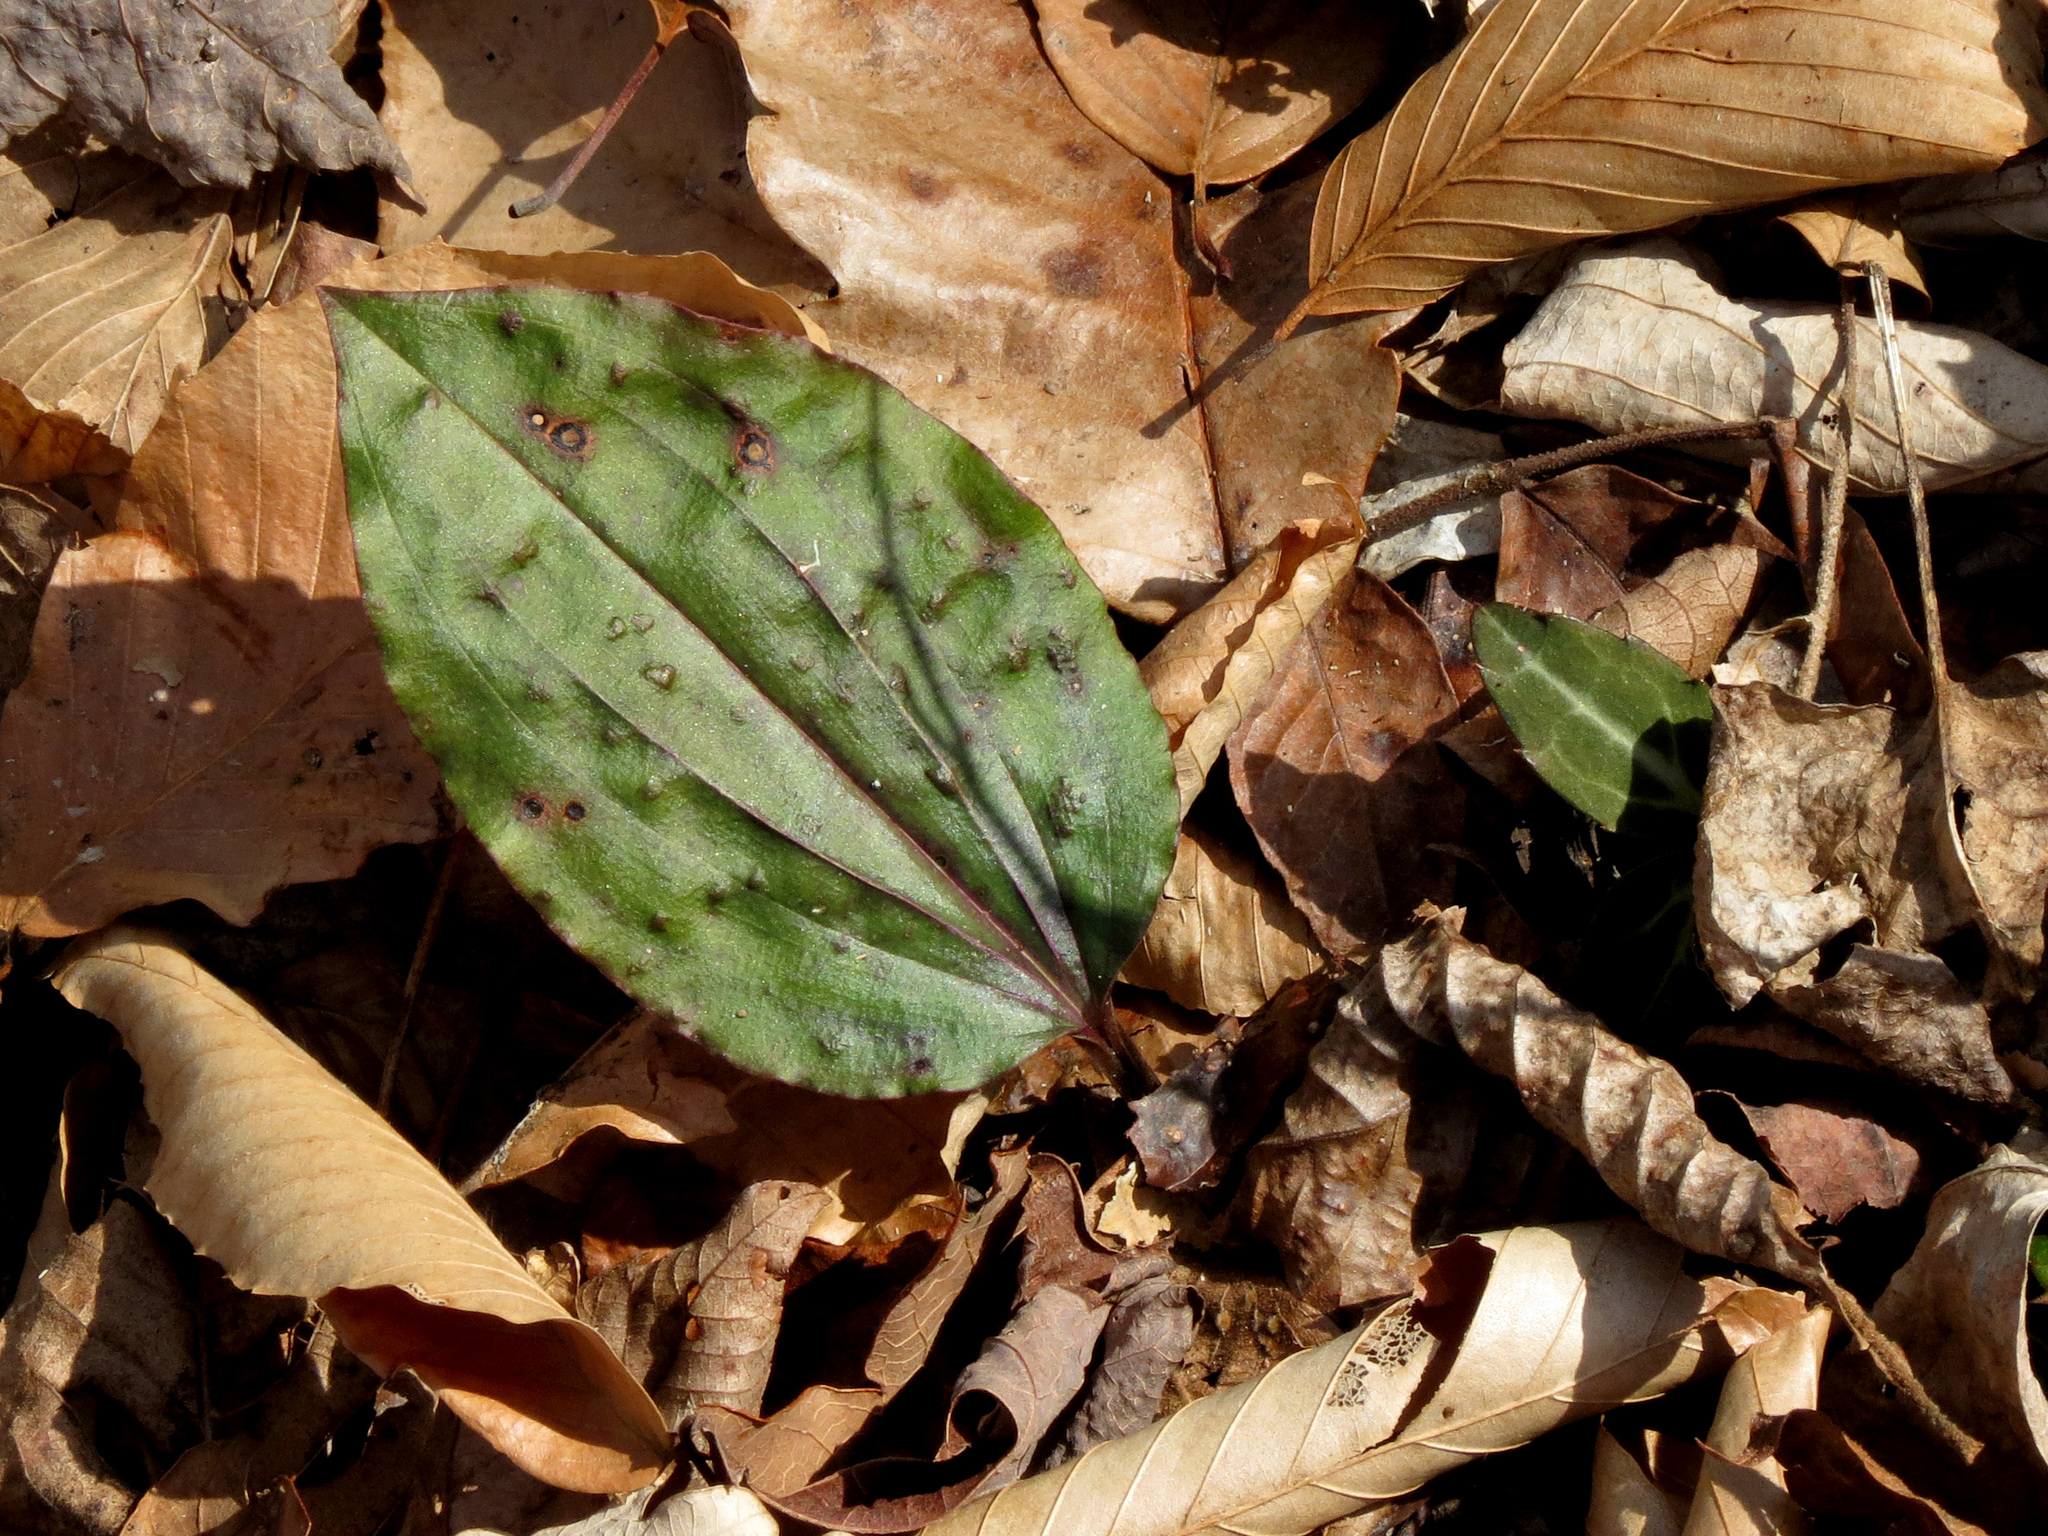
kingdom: Plantae
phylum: Tracheophyta
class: Liliopsida
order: Asparagales
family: Orchidaceae
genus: Tipularia
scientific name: Tipularia discolor
